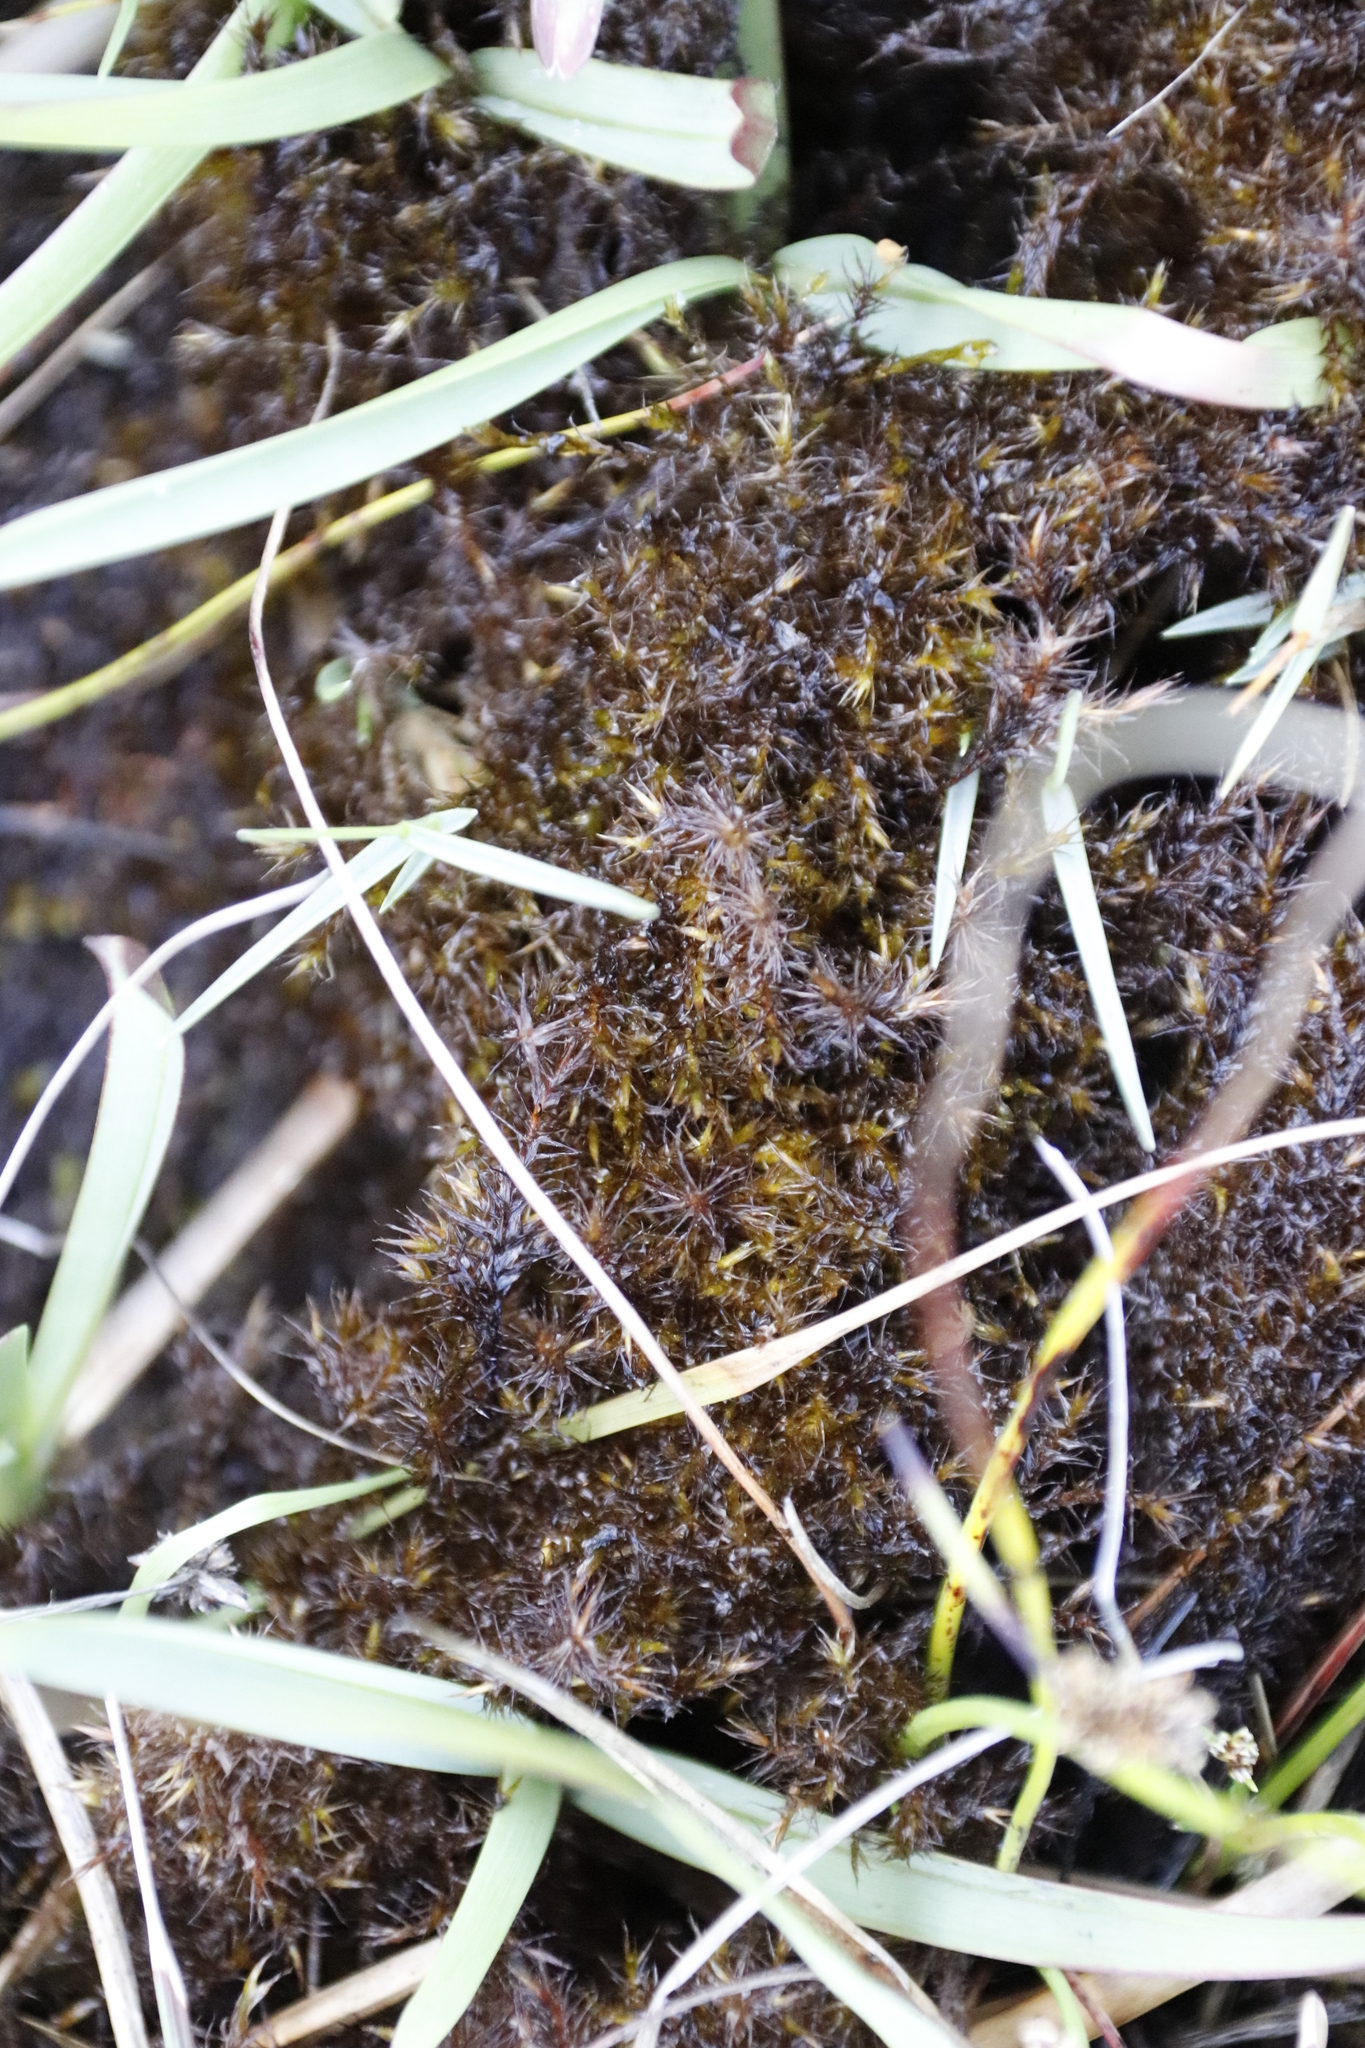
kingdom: Plantae
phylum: Bryophyta
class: Bryopsida
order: Dicranales
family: Leucobryaceae
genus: Campylopus
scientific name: Campylopus introflexus
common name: Heath star moss
